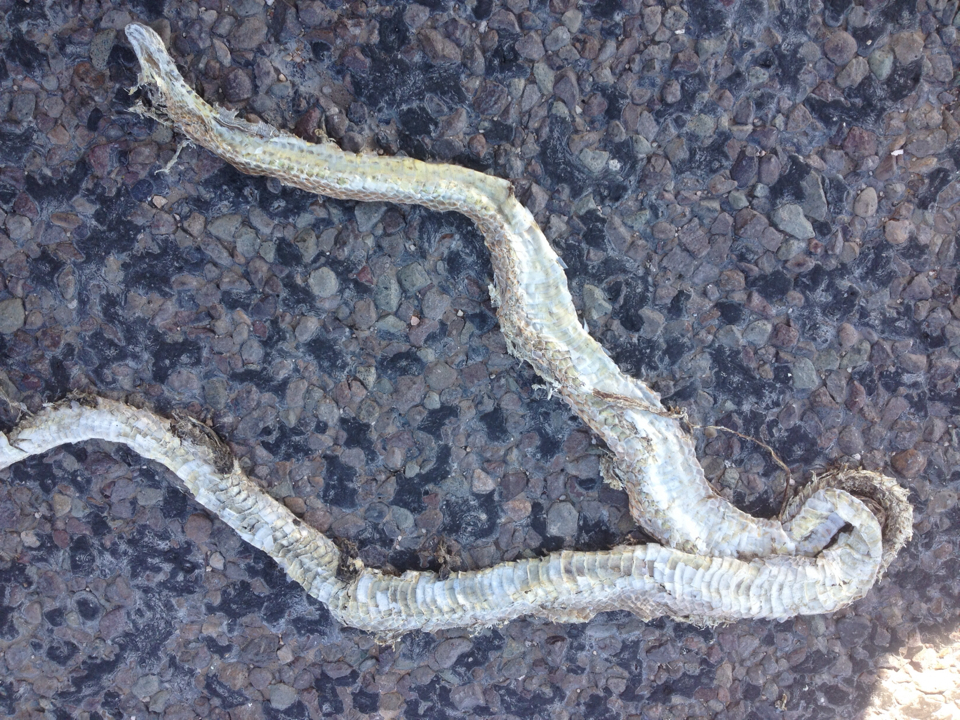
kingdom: Animalia
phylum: Chordata
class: Squamata
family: Colubridae
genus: Masticophis
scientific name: Masticophis flagellum
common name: Coachwhip
